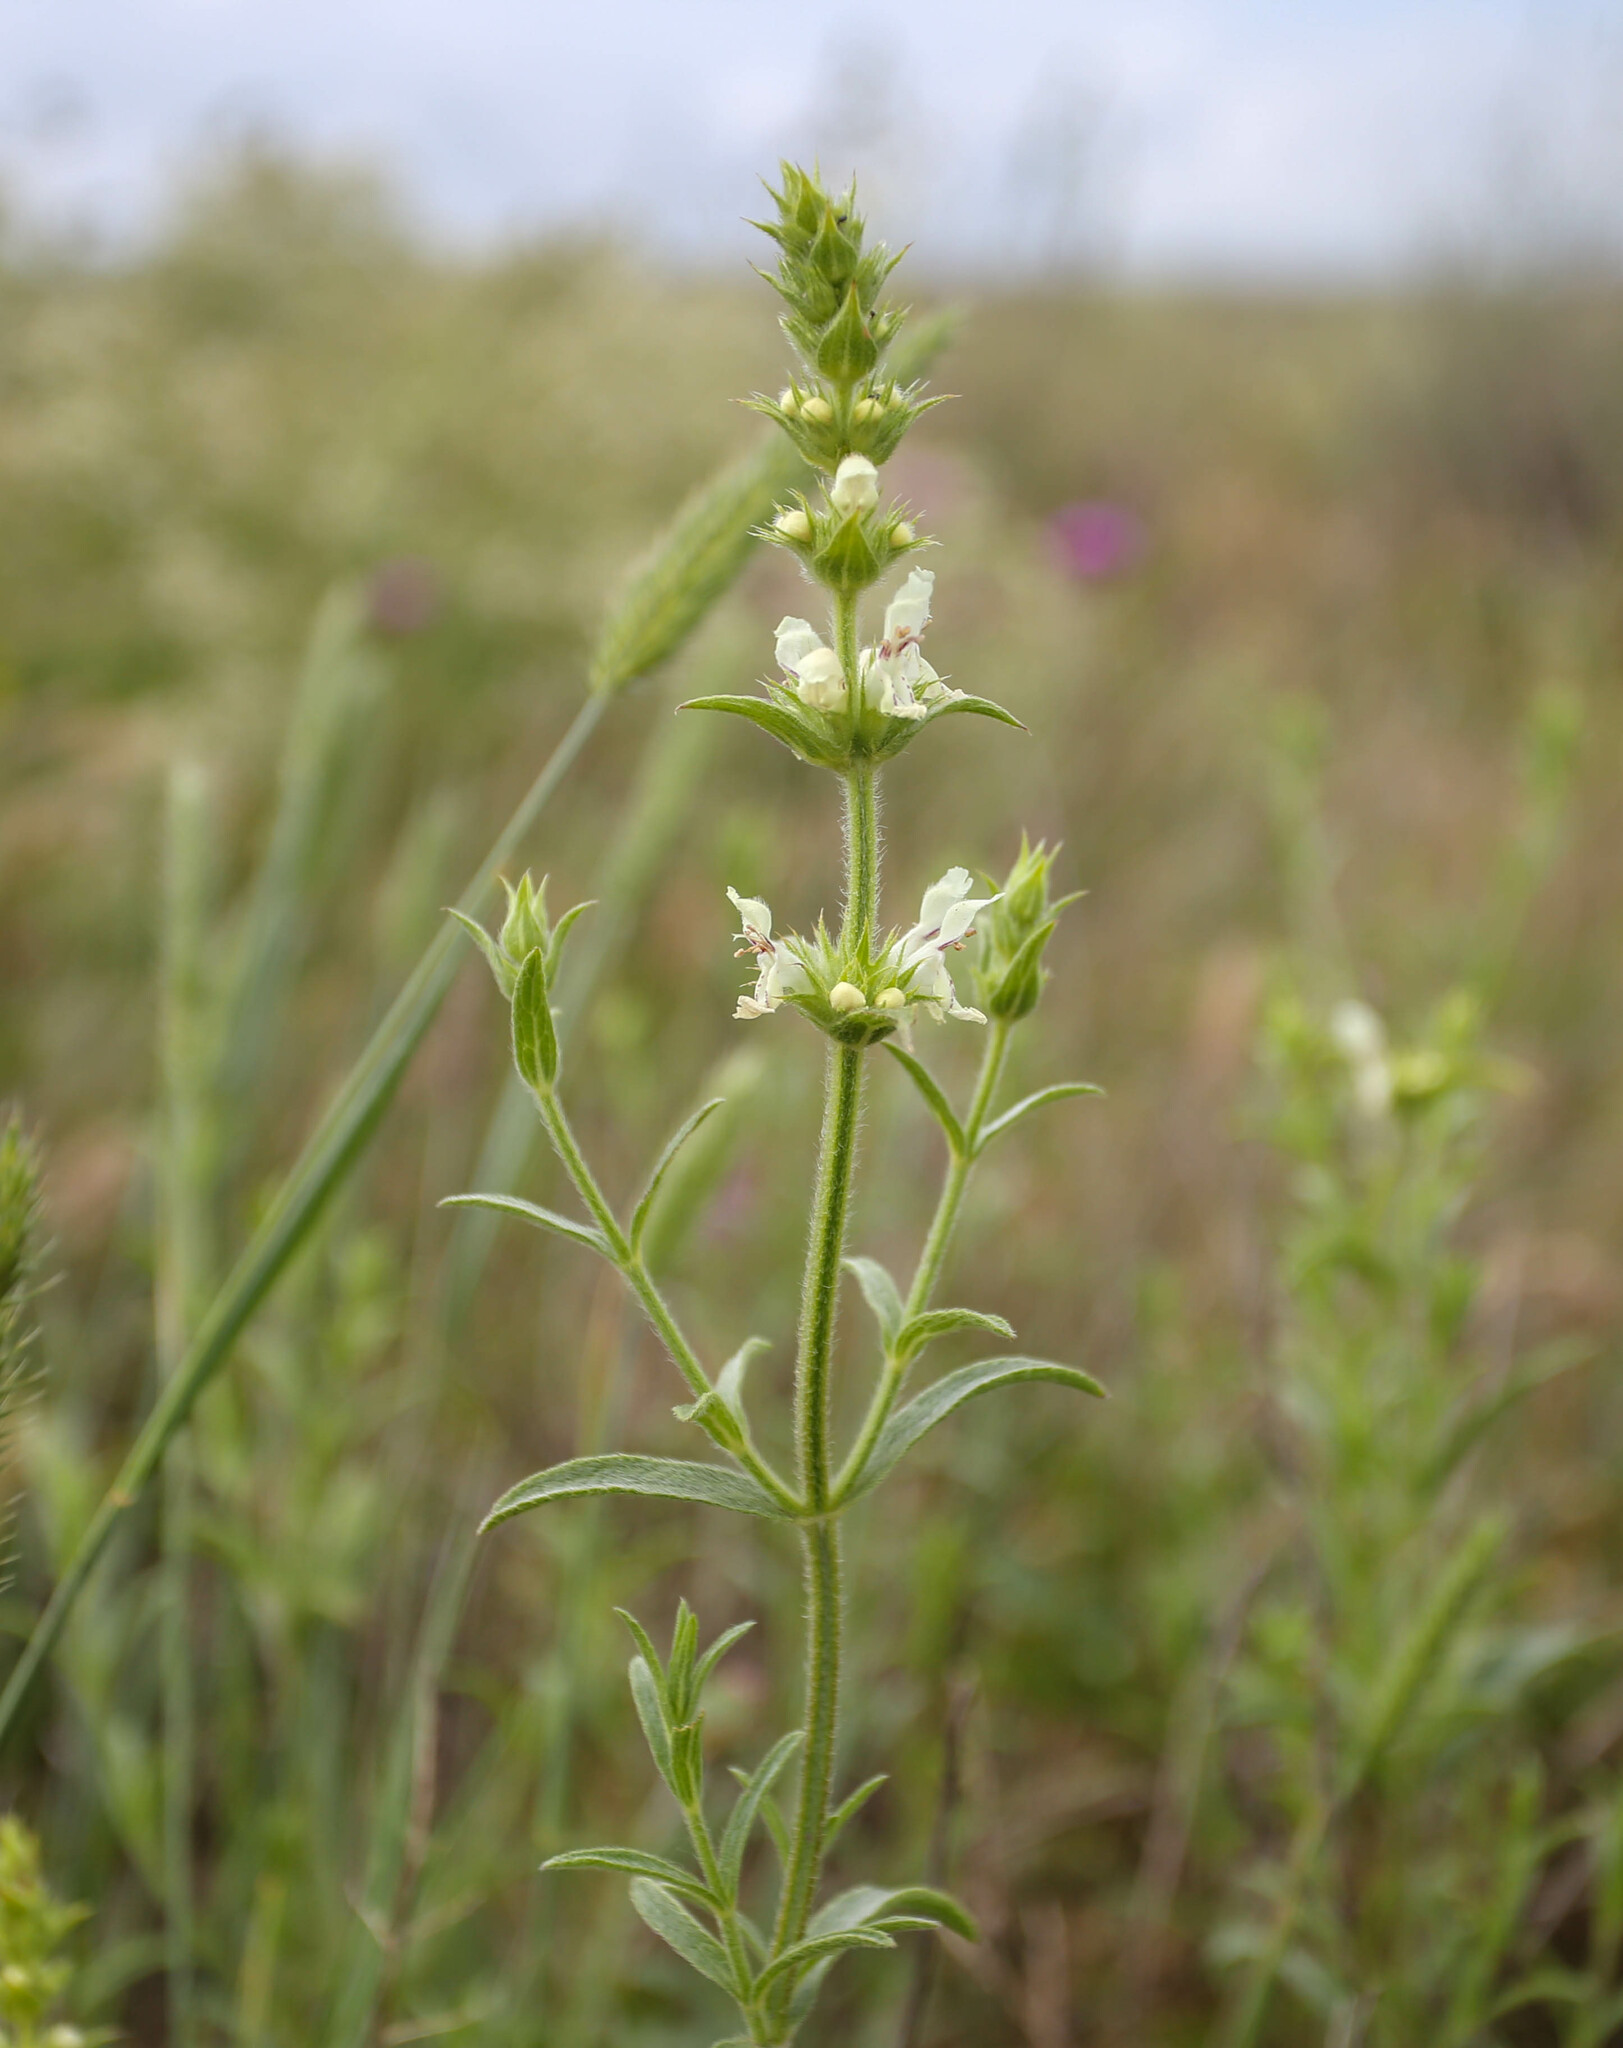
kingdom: Plantae
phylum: Tracheophyta
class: Magnoliopsida
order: Lamiales
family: Lamiaceae
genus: Stachys
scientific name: Stachys atherocalyx
